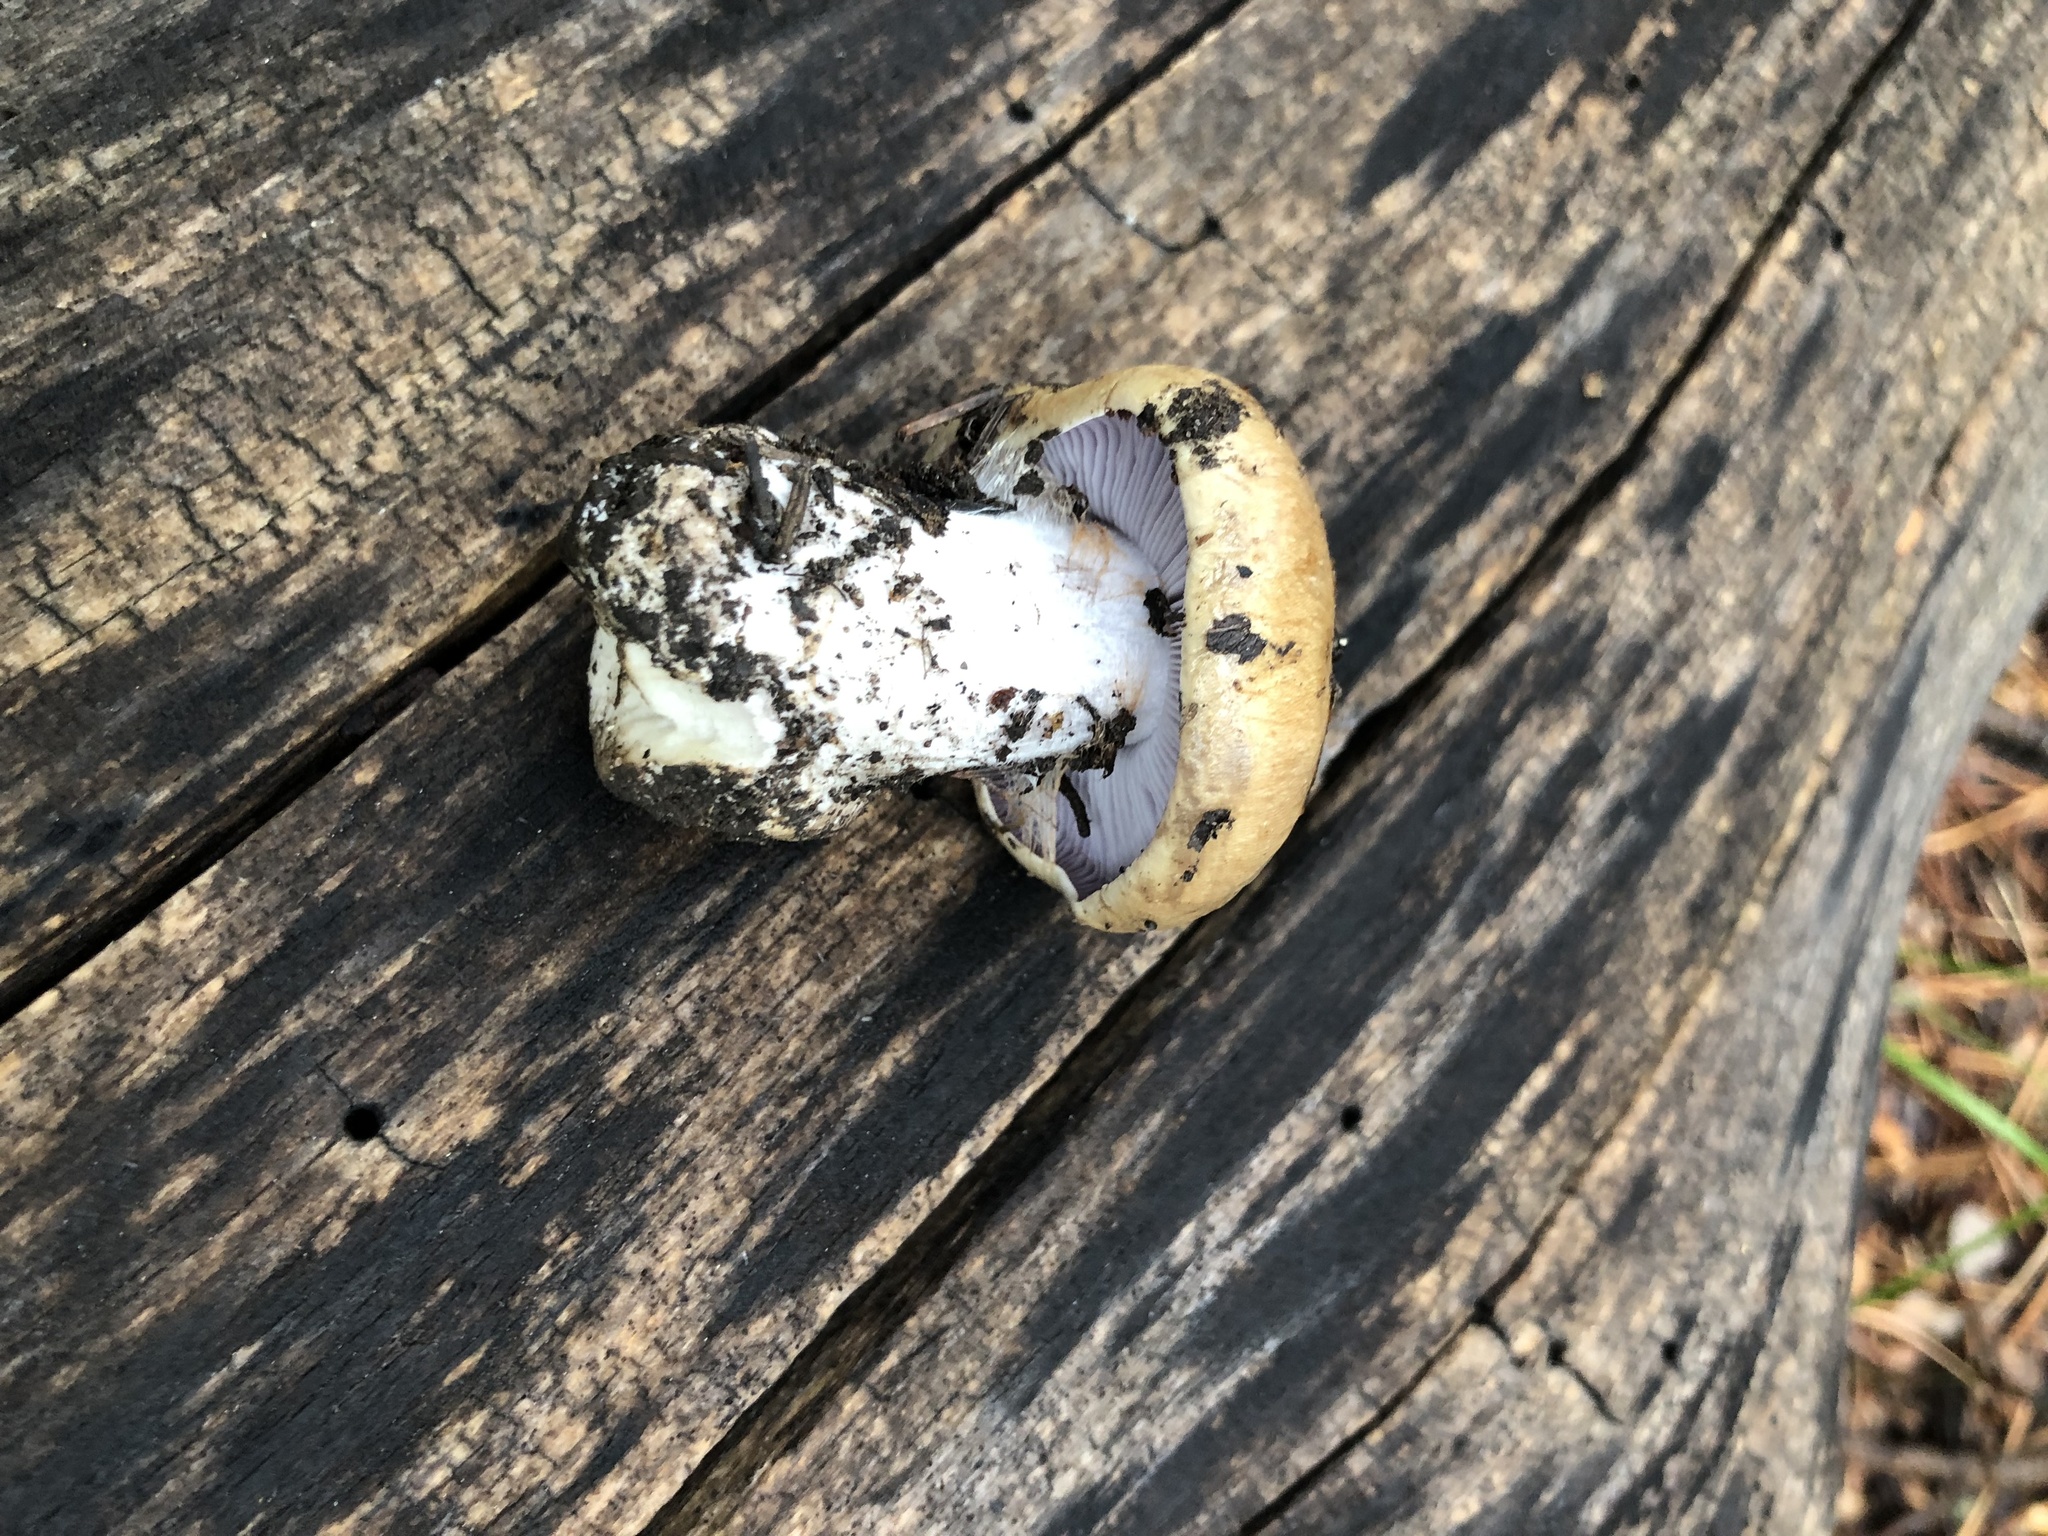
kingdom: Fungi
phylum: Basidiomycota
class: Agaricomycetes
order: Agaricales
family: Cortinariaceae
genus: Phlegmacium
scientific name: Phlegmacium glaucopus
